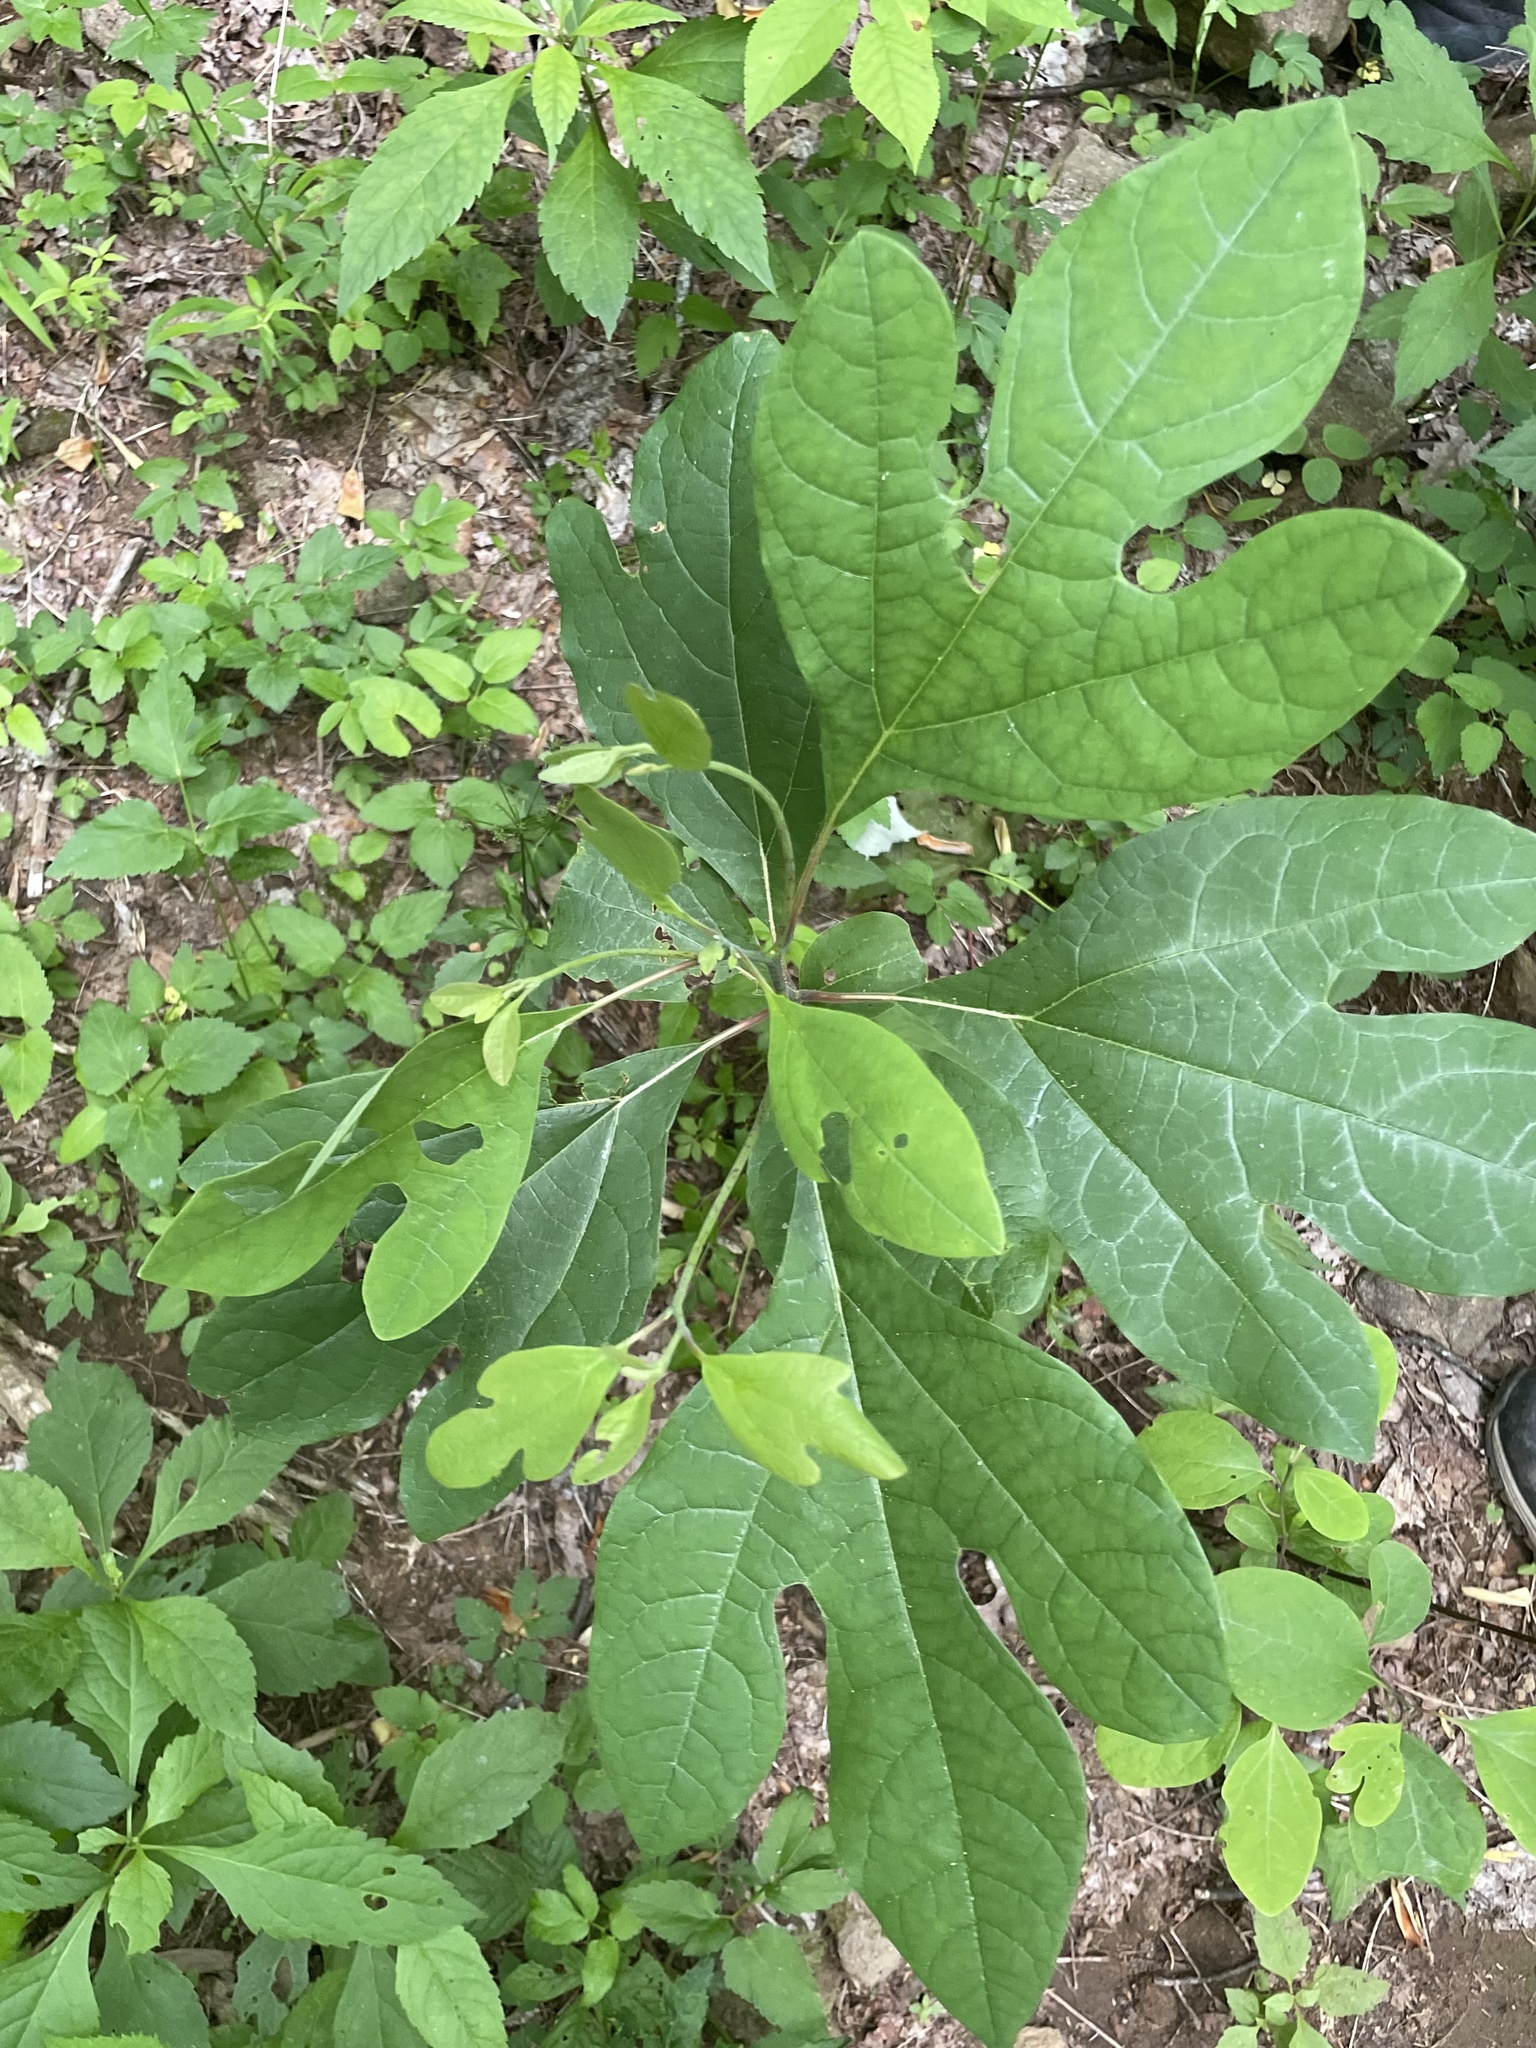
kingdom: Plantae
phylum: Tracheophyta
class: Magnoliopsida
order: Laurales
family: Lauraceae
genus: Sassafras
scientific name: Sassafras albidum
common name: Sassafras
